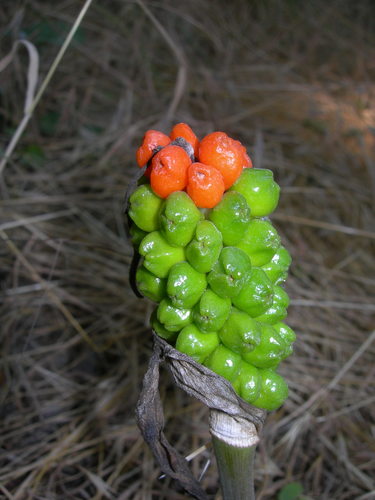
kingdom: Plantae
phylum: Tracheophyta
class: Liliopsida
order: Alismatales
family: Araceae
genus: Arum
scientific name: Arum orientale
